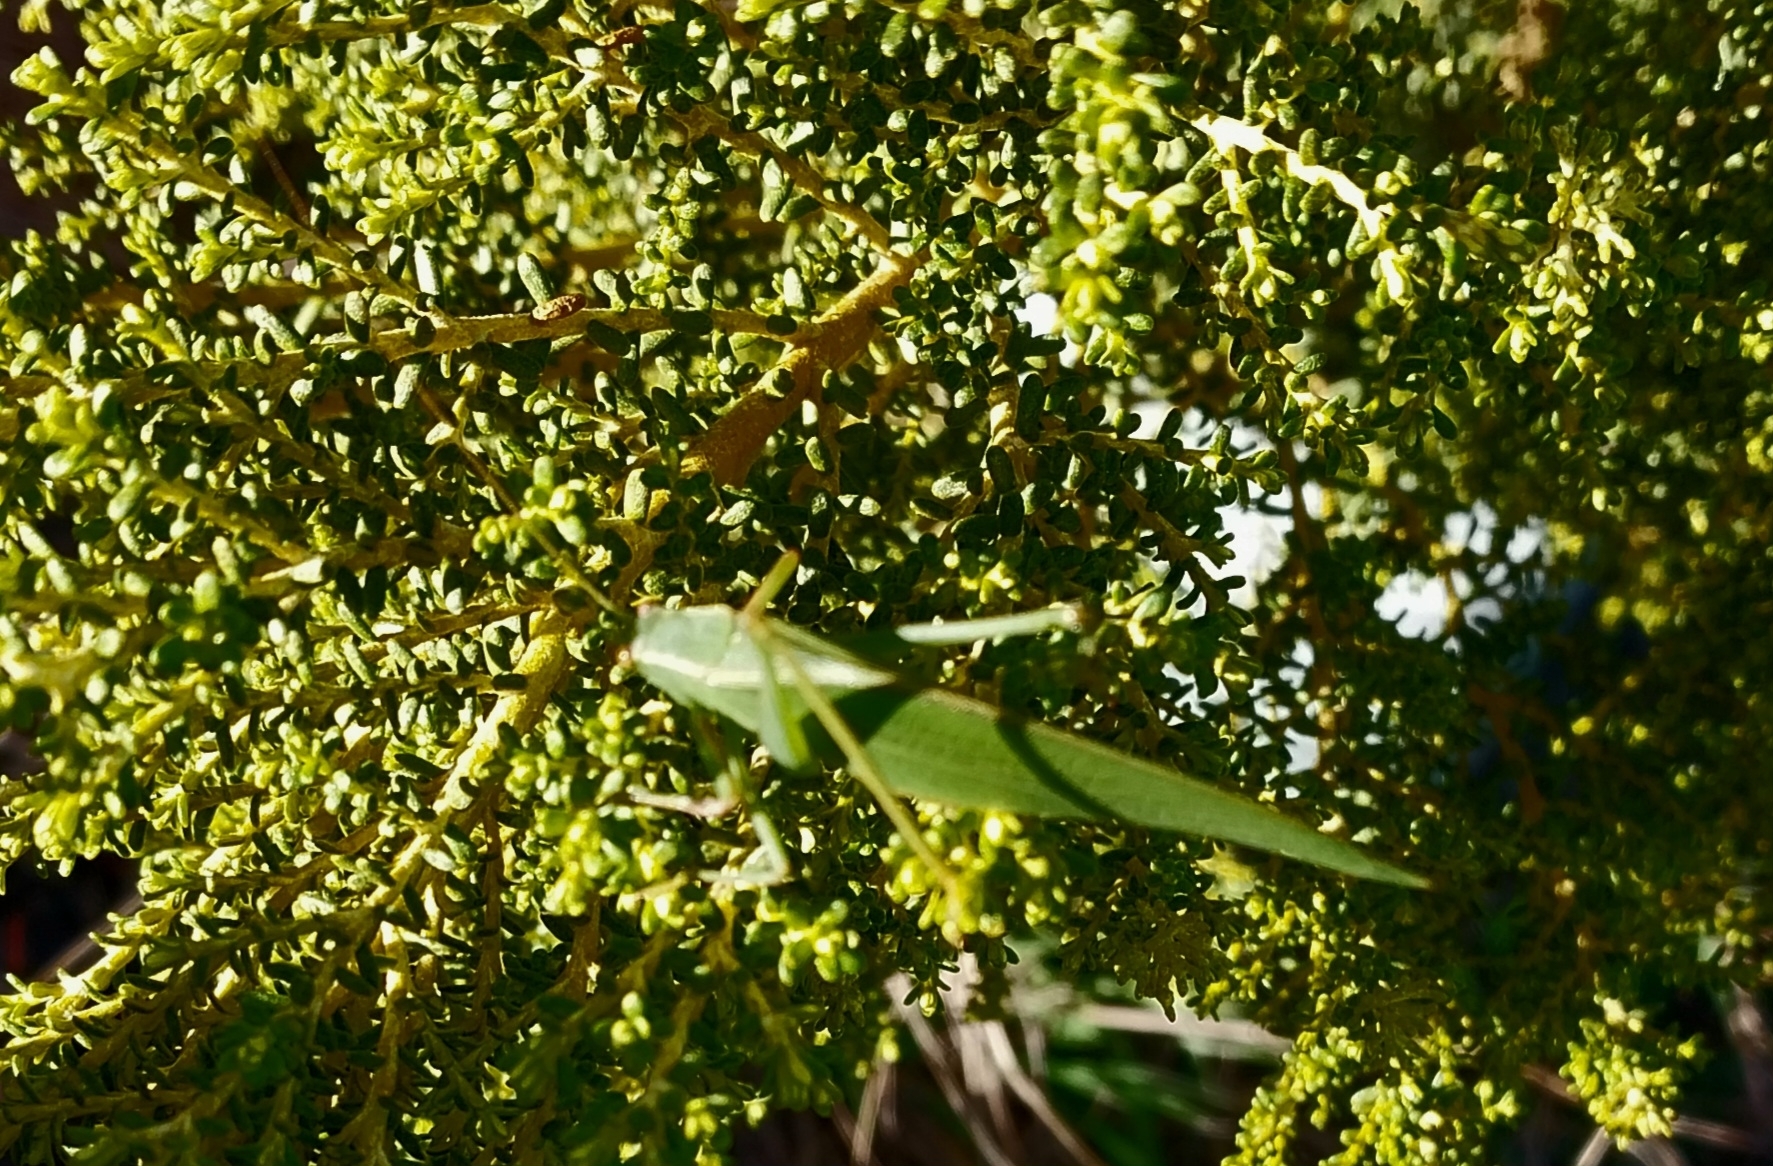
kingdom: Animalia
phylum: Arthropoda
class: Insecta
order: Orthoptera
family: Tettigoniidae
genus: Caedicia
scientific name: Caedicia simplex
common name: Common garden katydid
